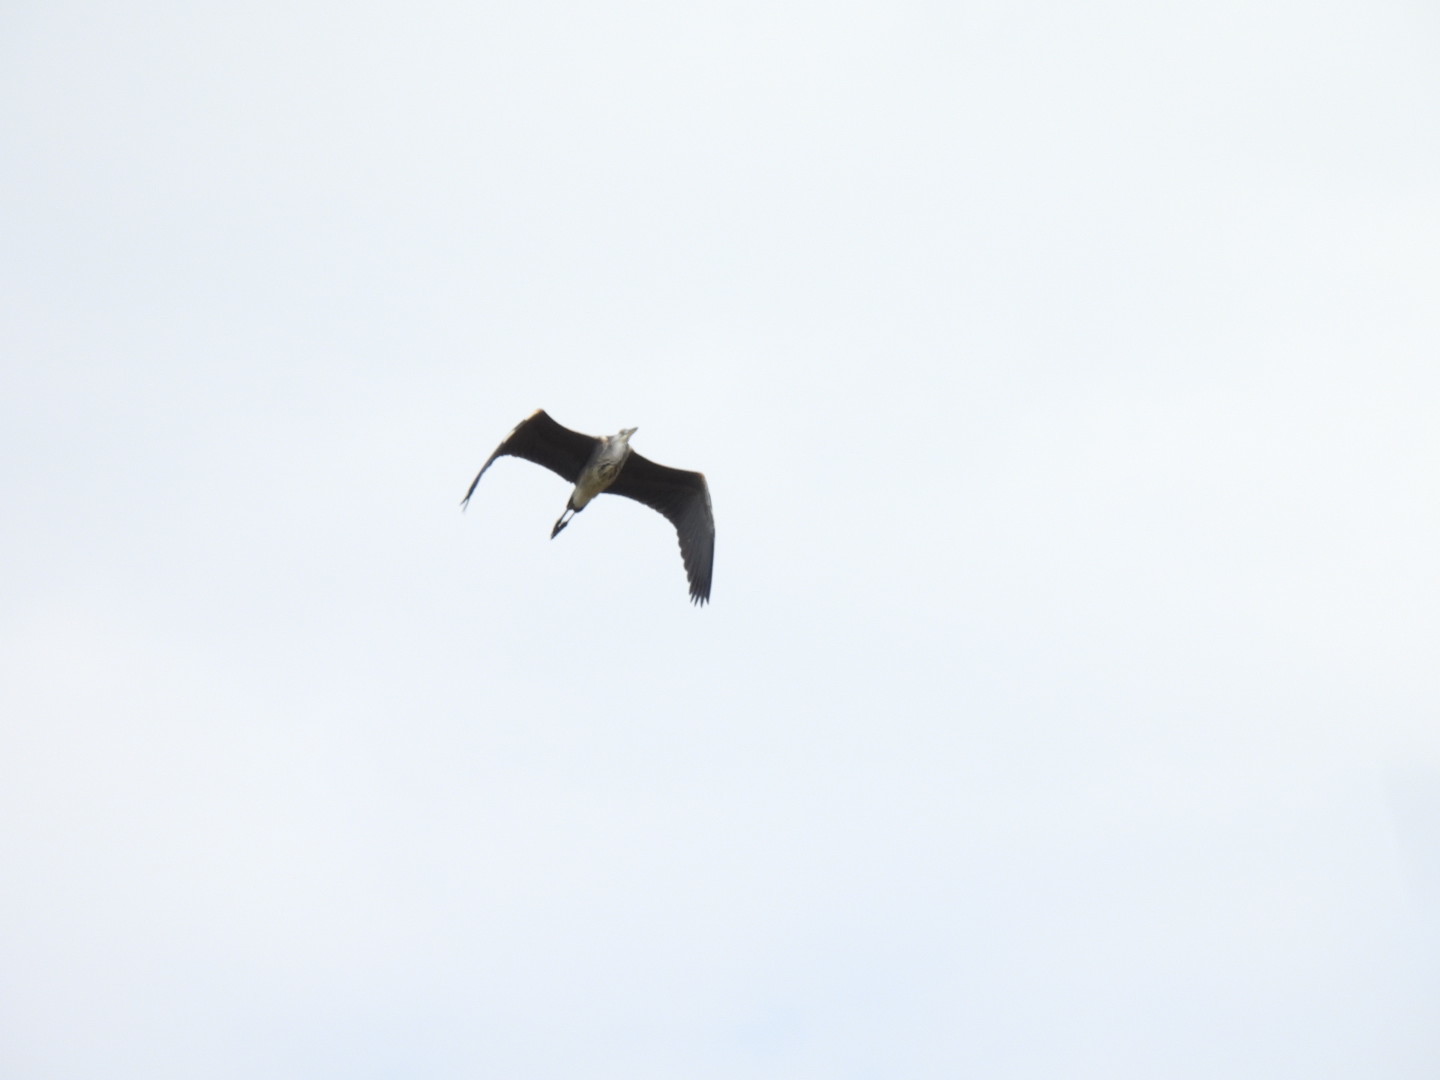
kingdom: Animalia
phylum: Chordata
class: Aves
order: Pelecaniformes
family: Ardeidae
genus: Ardea
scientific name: Ardea cinerea
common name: Grey heron
